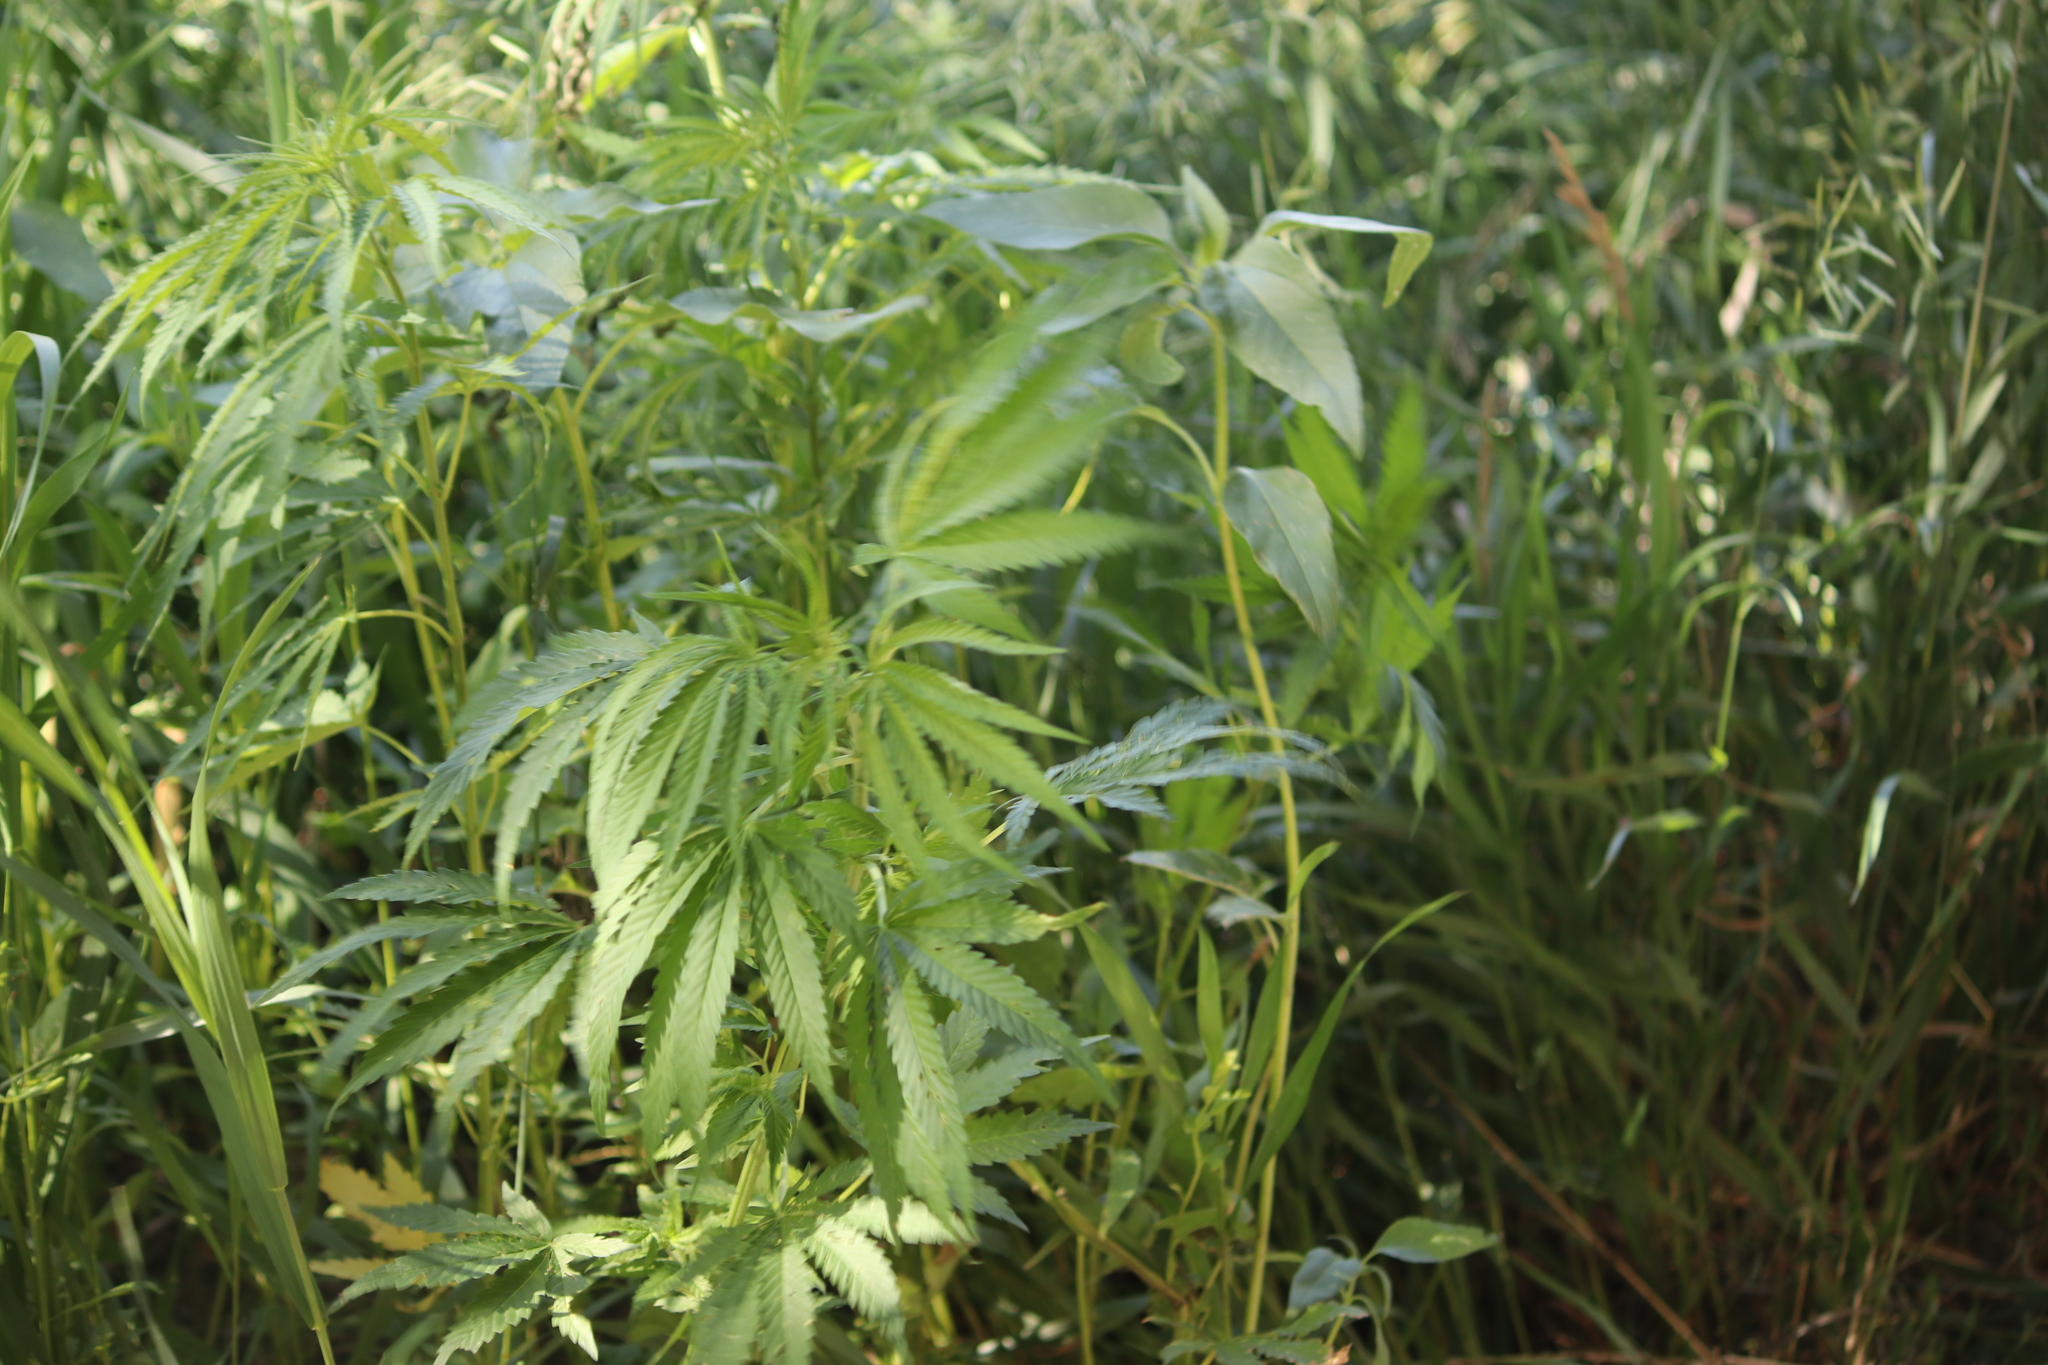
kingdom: Plantae
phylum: Tracheophyta
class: Magnoliopsida
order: Rosales
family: Cannabaceae
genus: Cannabis
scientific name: Cannabis sativa
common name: Hemp
